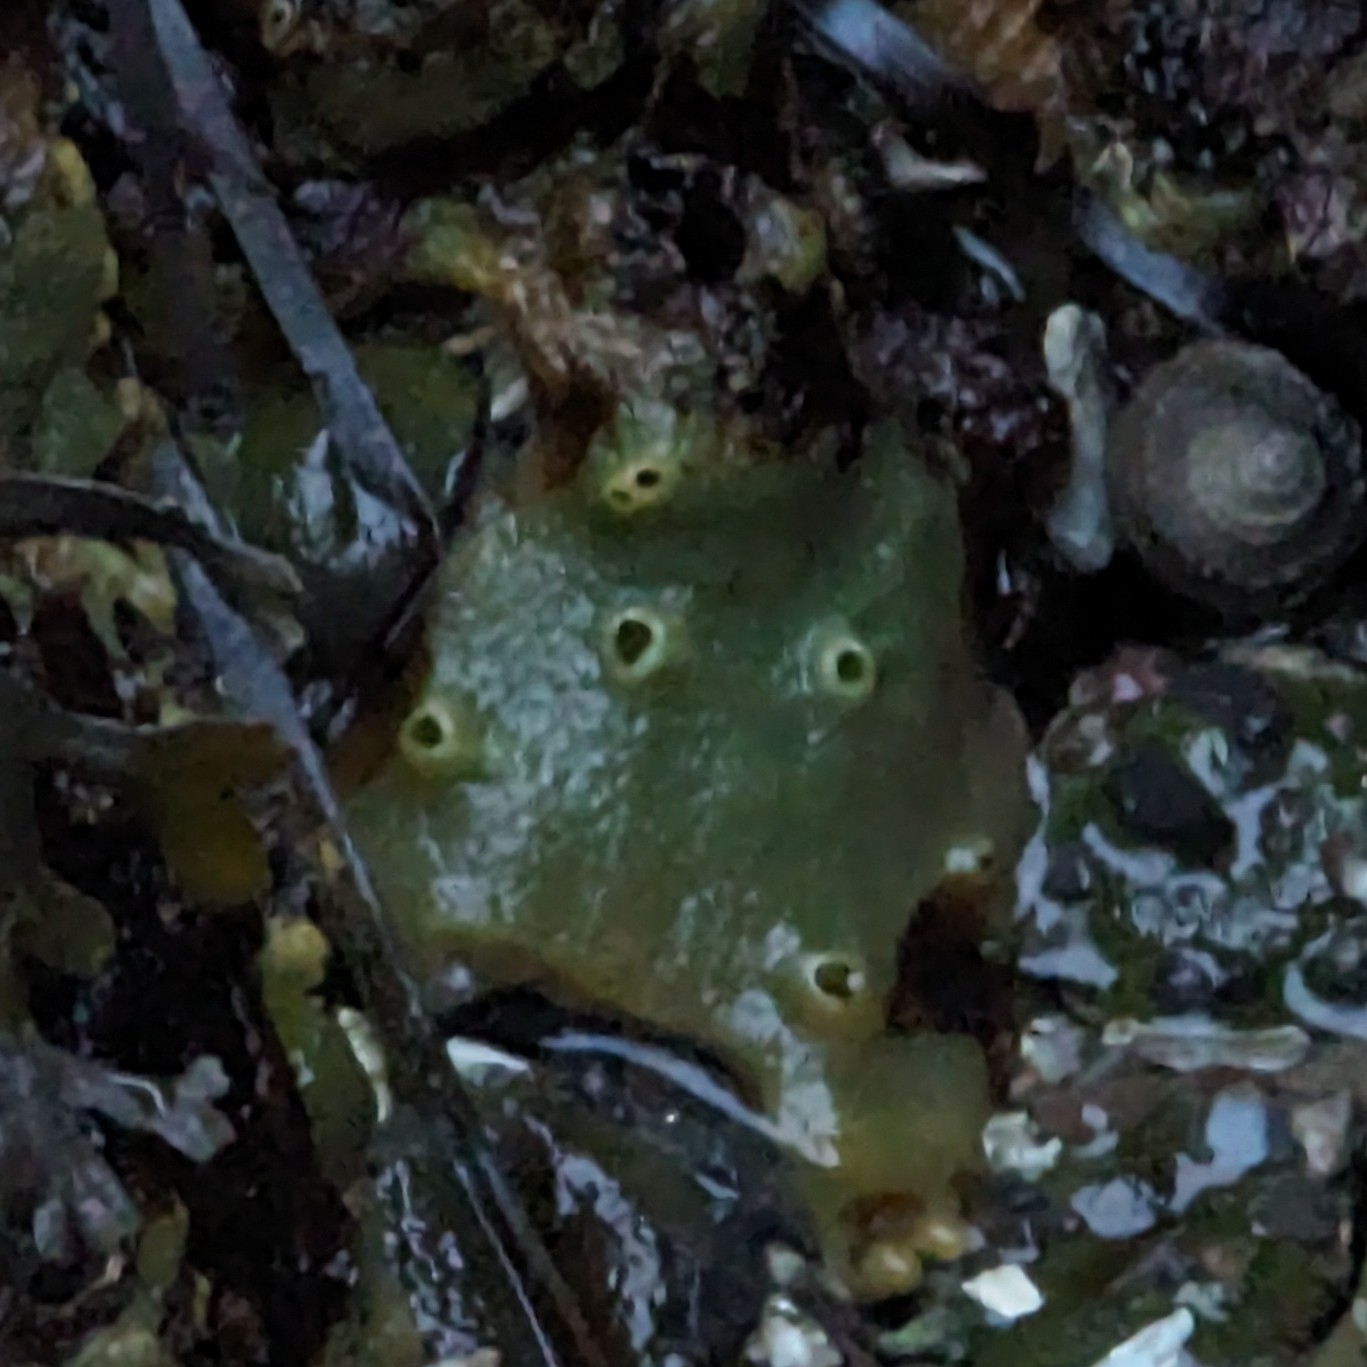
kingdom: Animalia
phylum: Porifera
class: Demospongiae
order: Suberitida
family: Halichondriidae
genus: Halichondria
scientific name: Halichondria panicea
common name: Breadcrumb sponge
